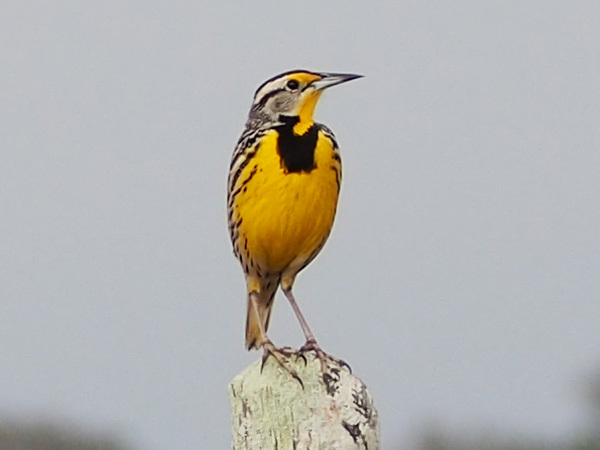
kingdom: Animalia
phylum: Chordata
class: Aves
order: Passeriformes
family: Icteridae
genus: Sturnella
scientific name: Sturnella magna
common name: Eastern meadowlark
